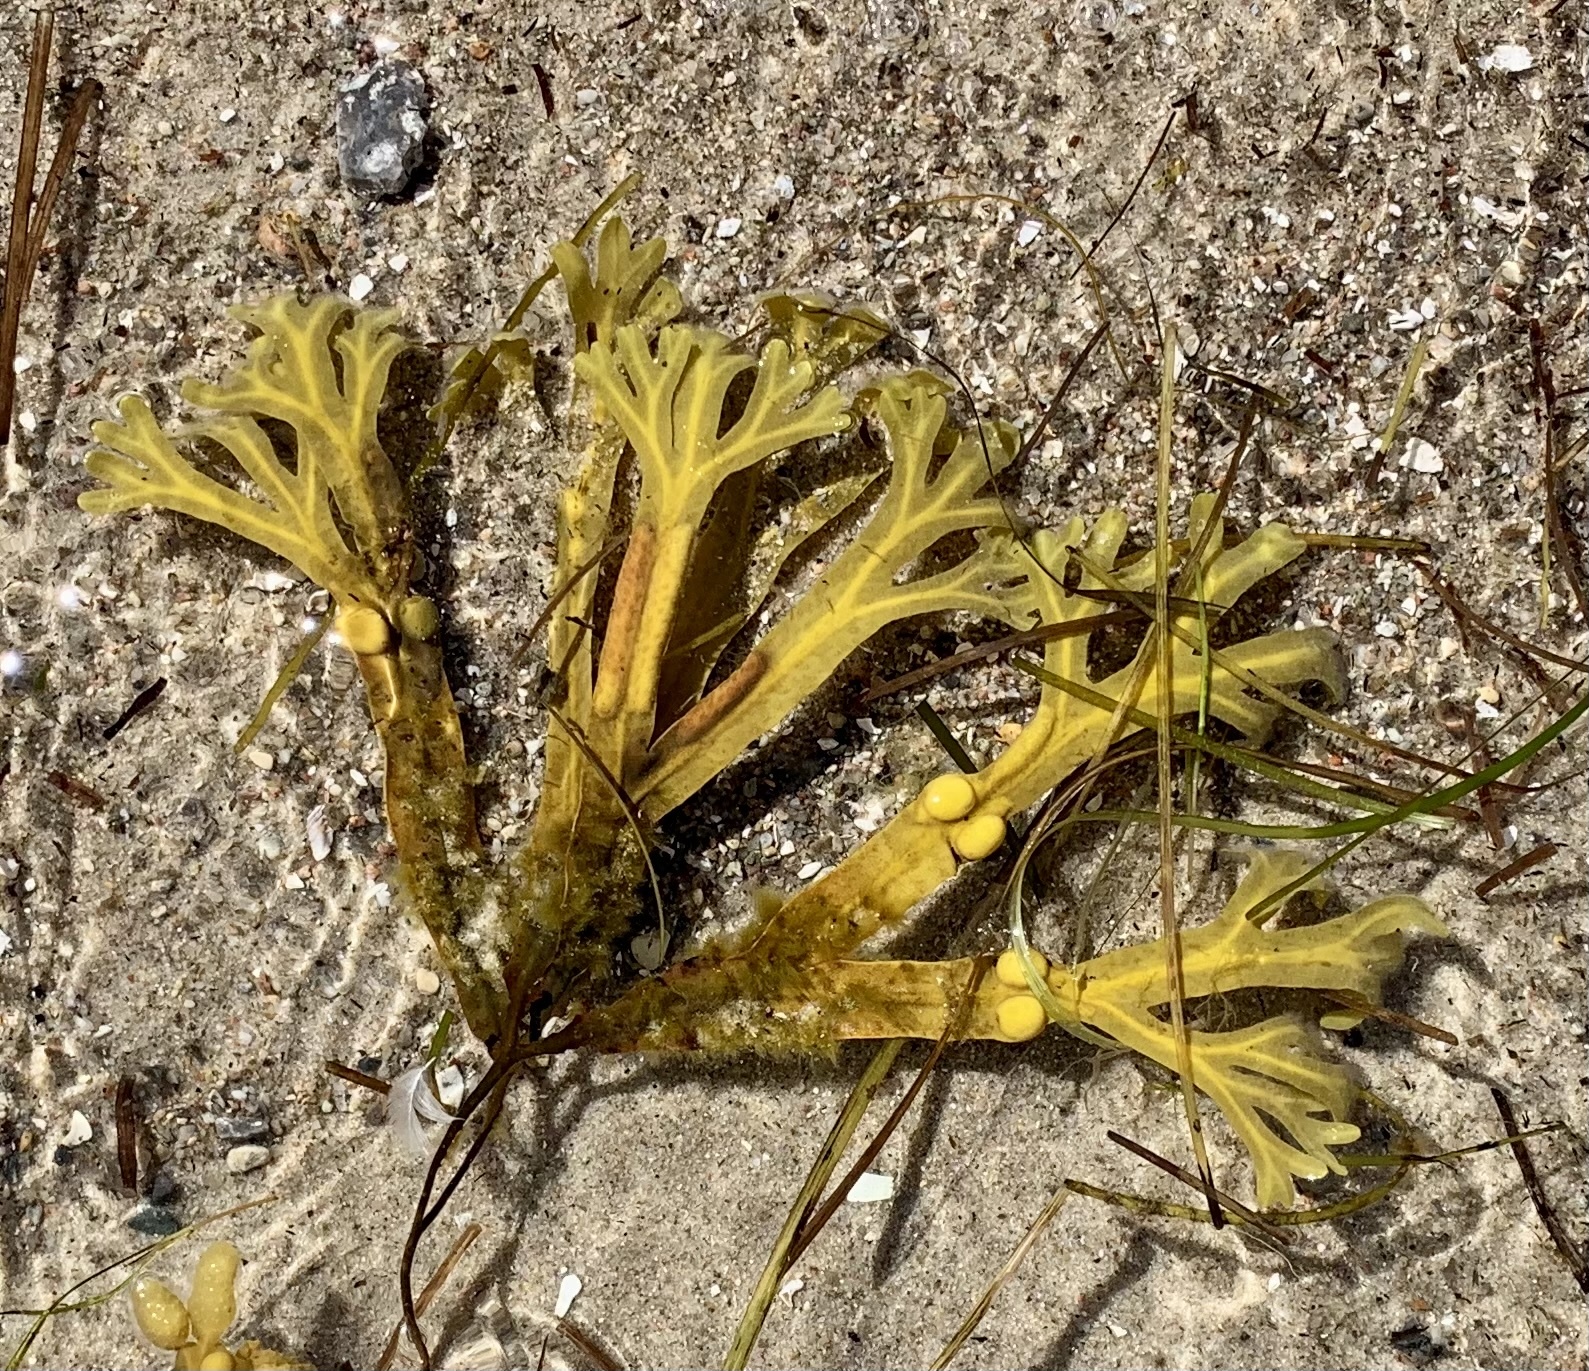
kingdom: Chromista
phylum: Ochrophyta
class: Phaeophyceae
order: Fucales
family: Fucaceae
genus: Fucus
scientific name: Fucus vesiculosus
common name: Bladder wrack
